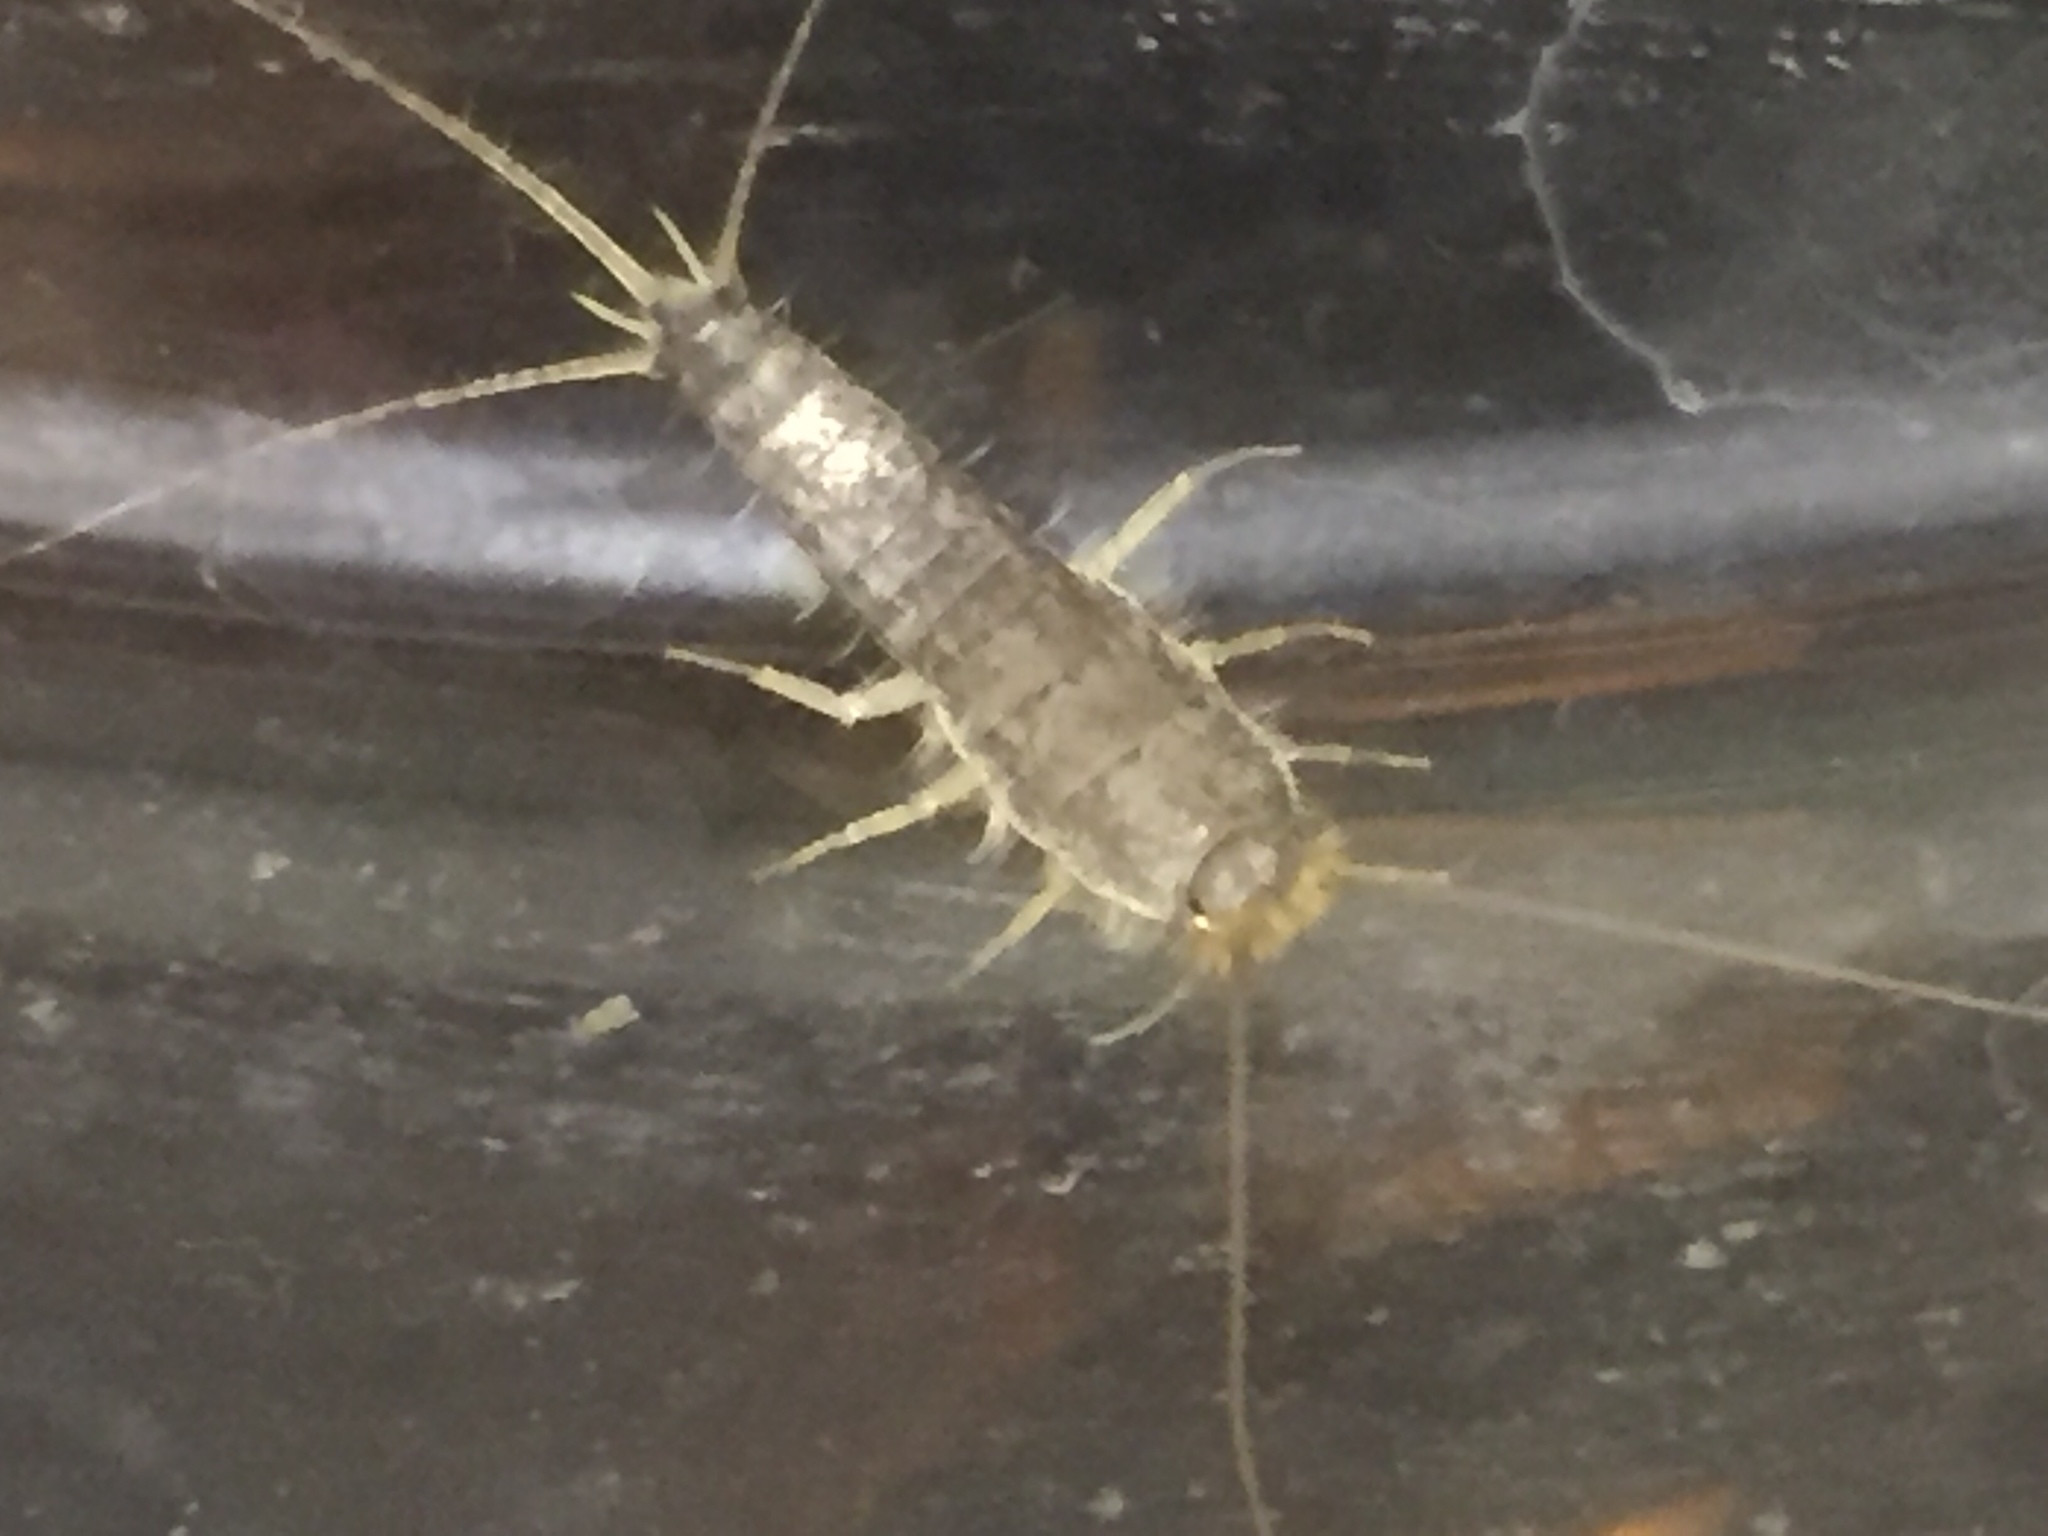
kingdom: Animalia
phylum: Arthropoda
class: Insecta
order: Zygentoma
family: Lepismatidae
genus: Ctenolepisma
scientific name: Ctenolepisma longicaudatum
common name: Silverfish
